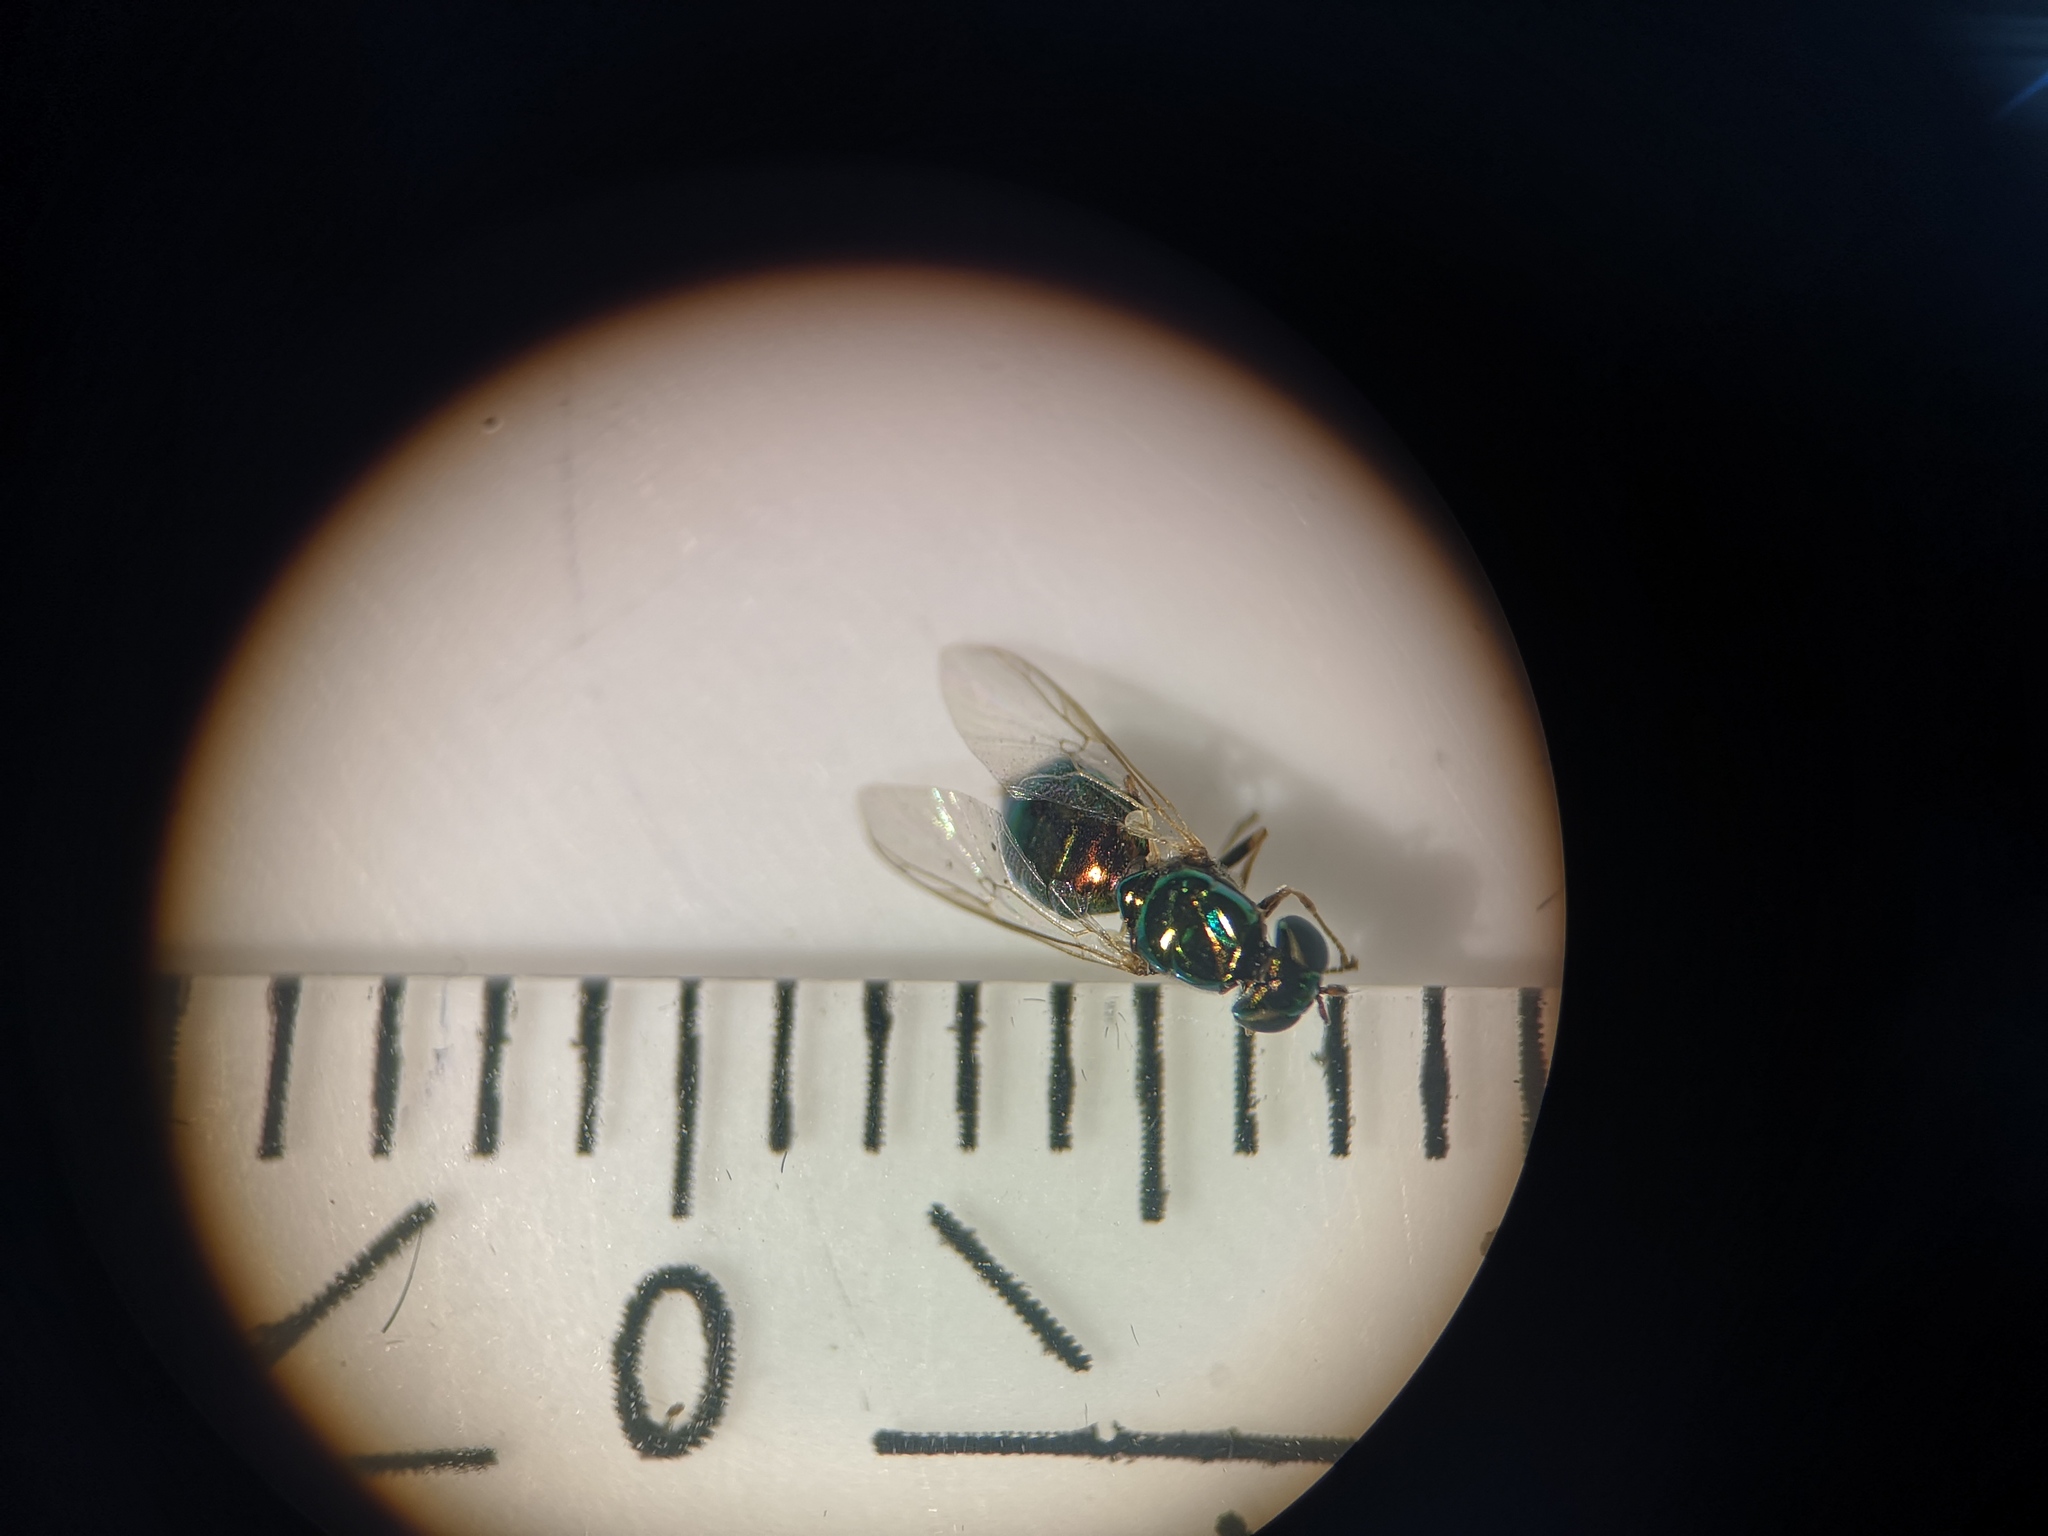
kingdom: Animalia
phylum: Arthropoda
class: Insecta
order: Diptera
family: Stratiomyidae
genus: Microchrysa
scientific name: Microchrysa flavicornis
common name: Soldier fly
